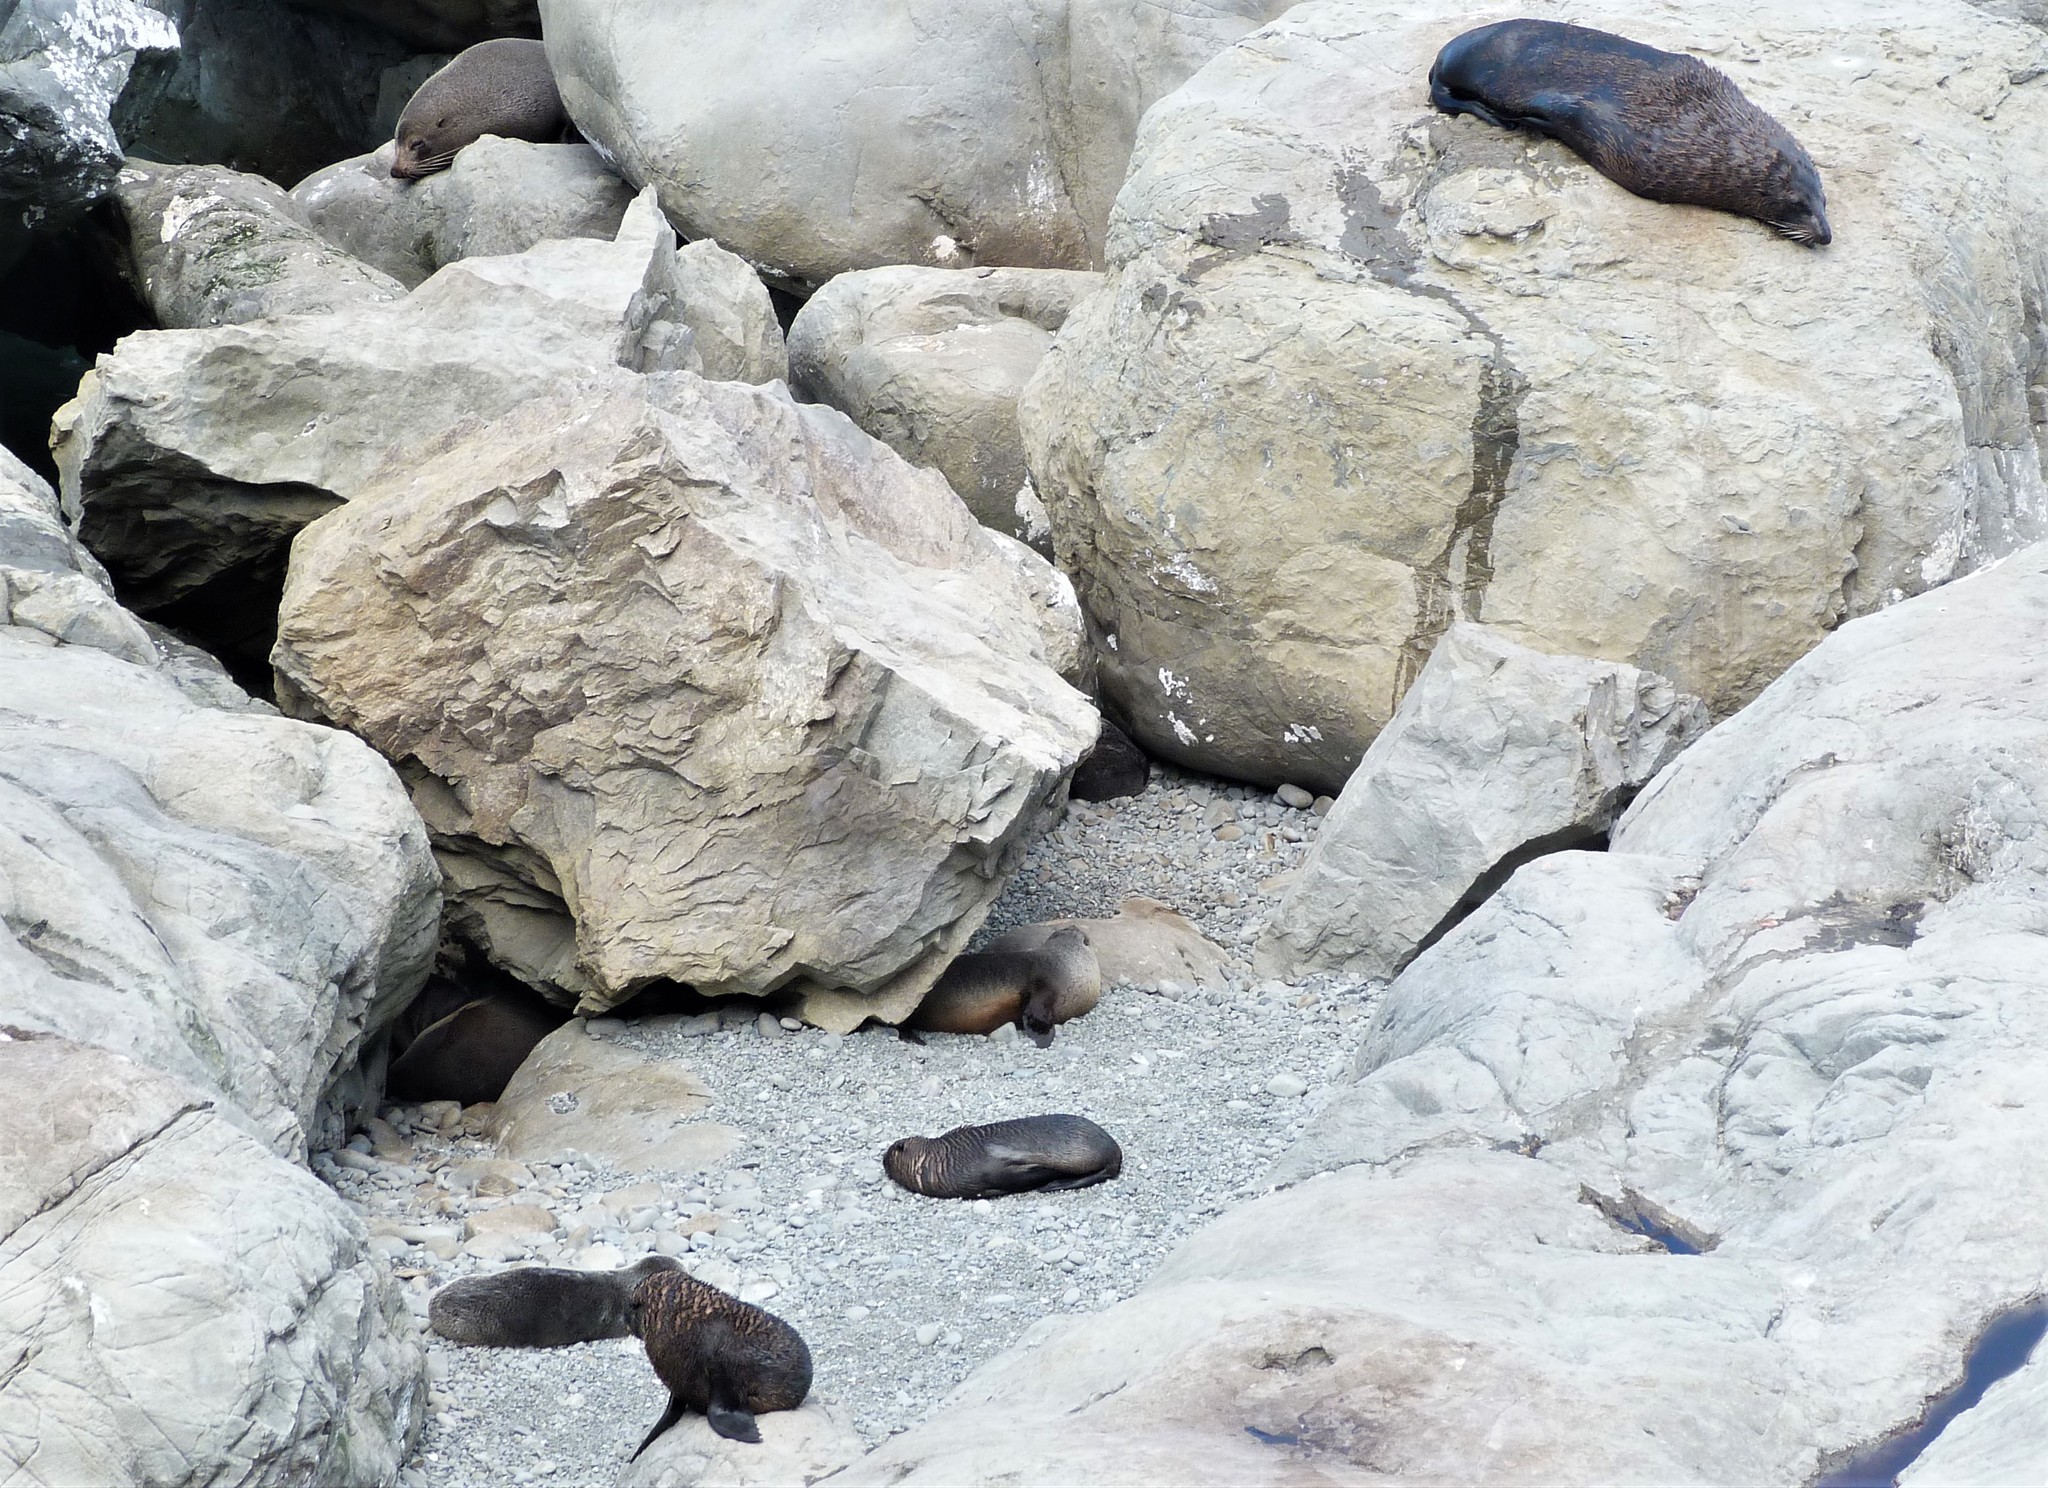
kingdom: Animalia
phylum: Chordata
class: Mammalia
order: Carnivora
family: Otariidae
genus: Arctocephalus
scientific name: Arctocephalus forsteri
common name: New zealand fur seal
